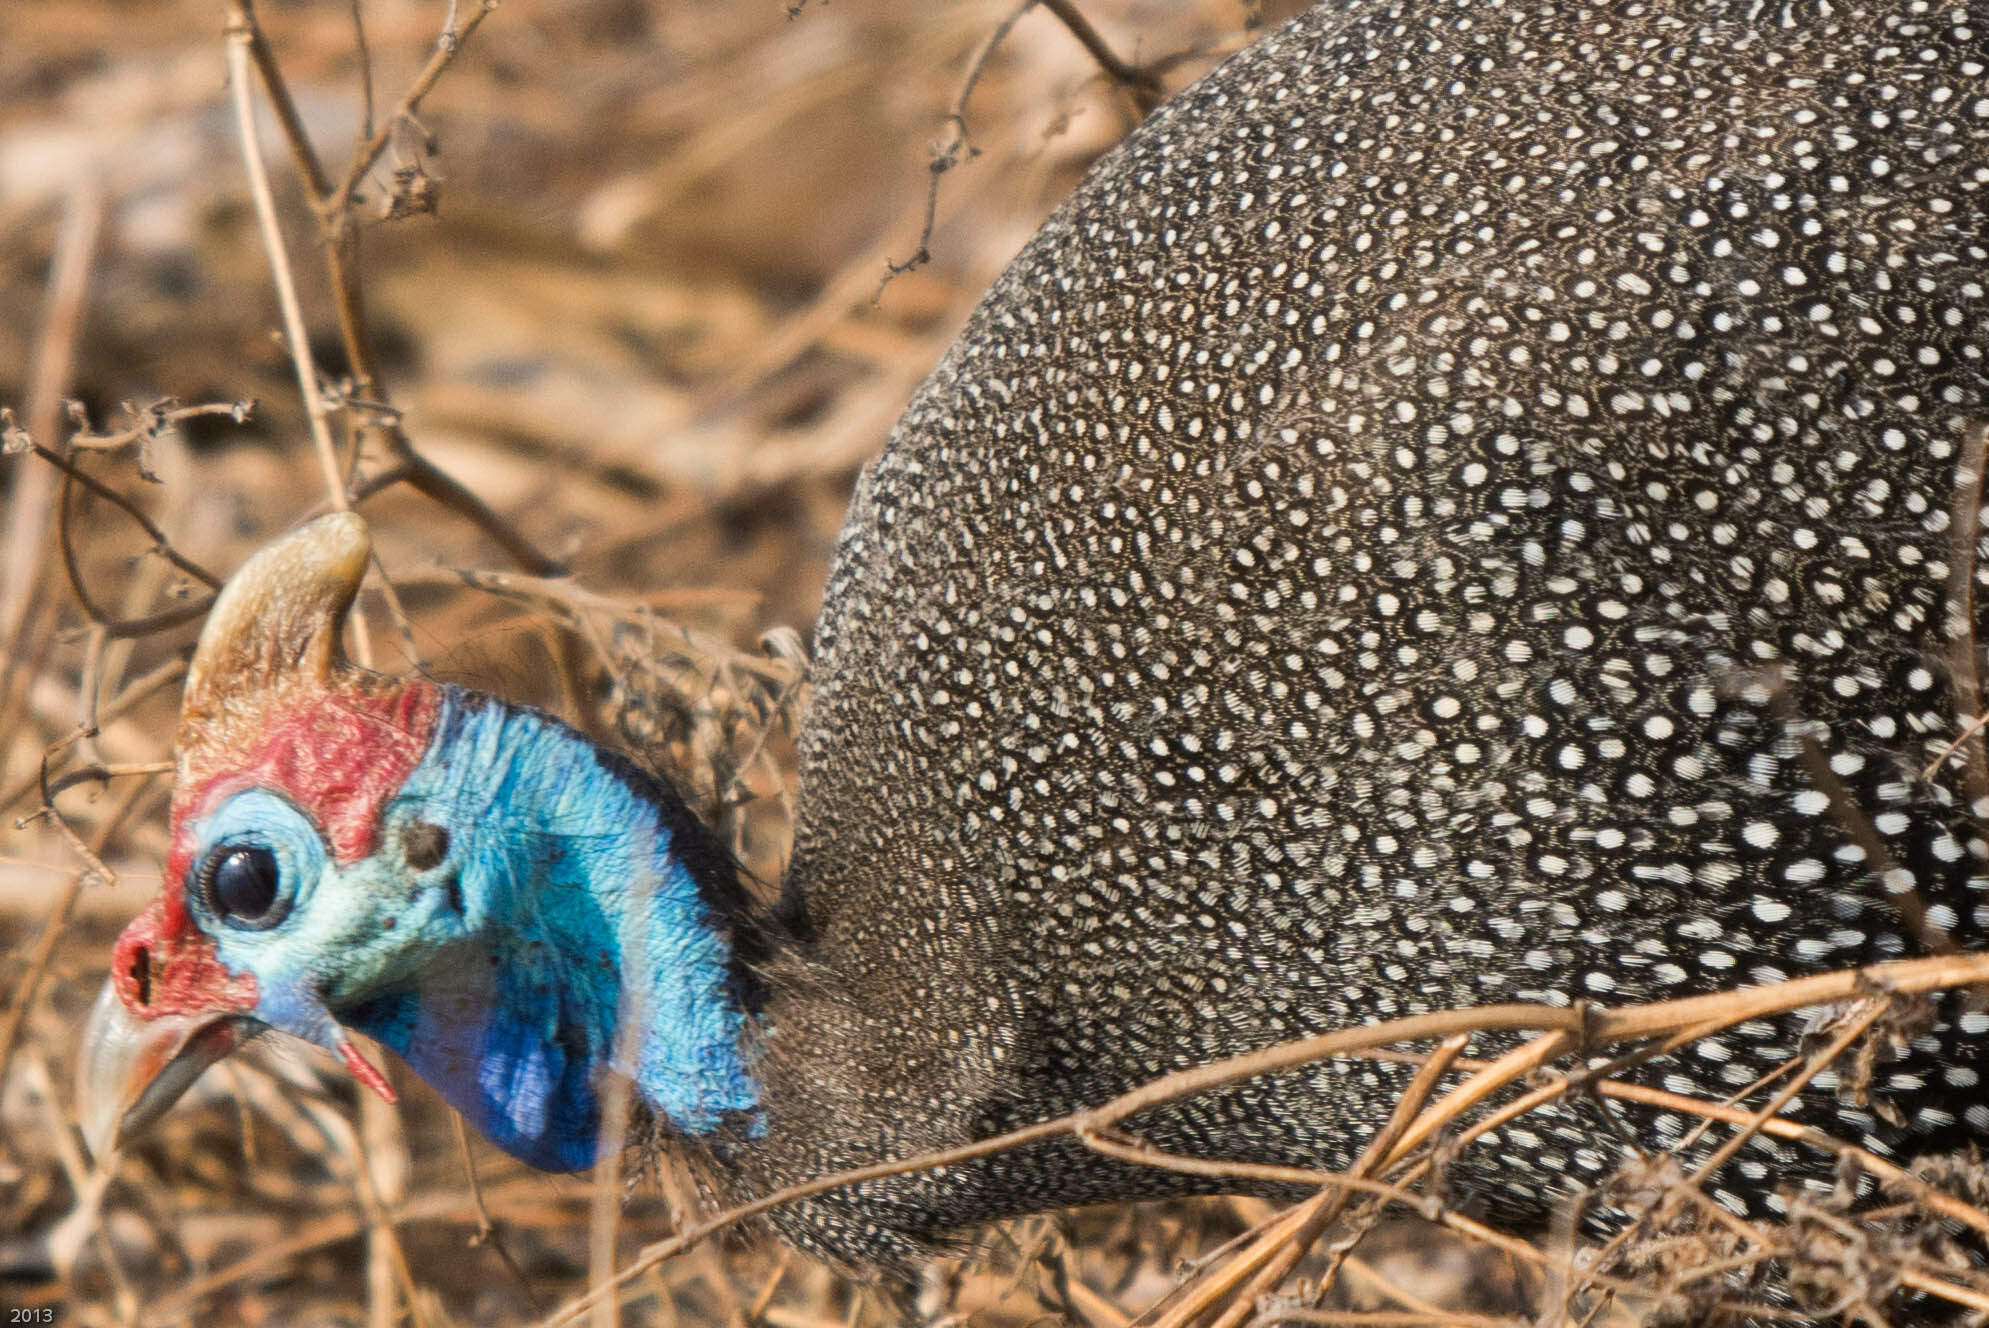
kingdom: Animalia
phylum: Chordata
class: Aves
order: Galliformes
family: Numididae
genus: Numida
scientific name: Numida meleagris
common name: Helmeted guineafowl
